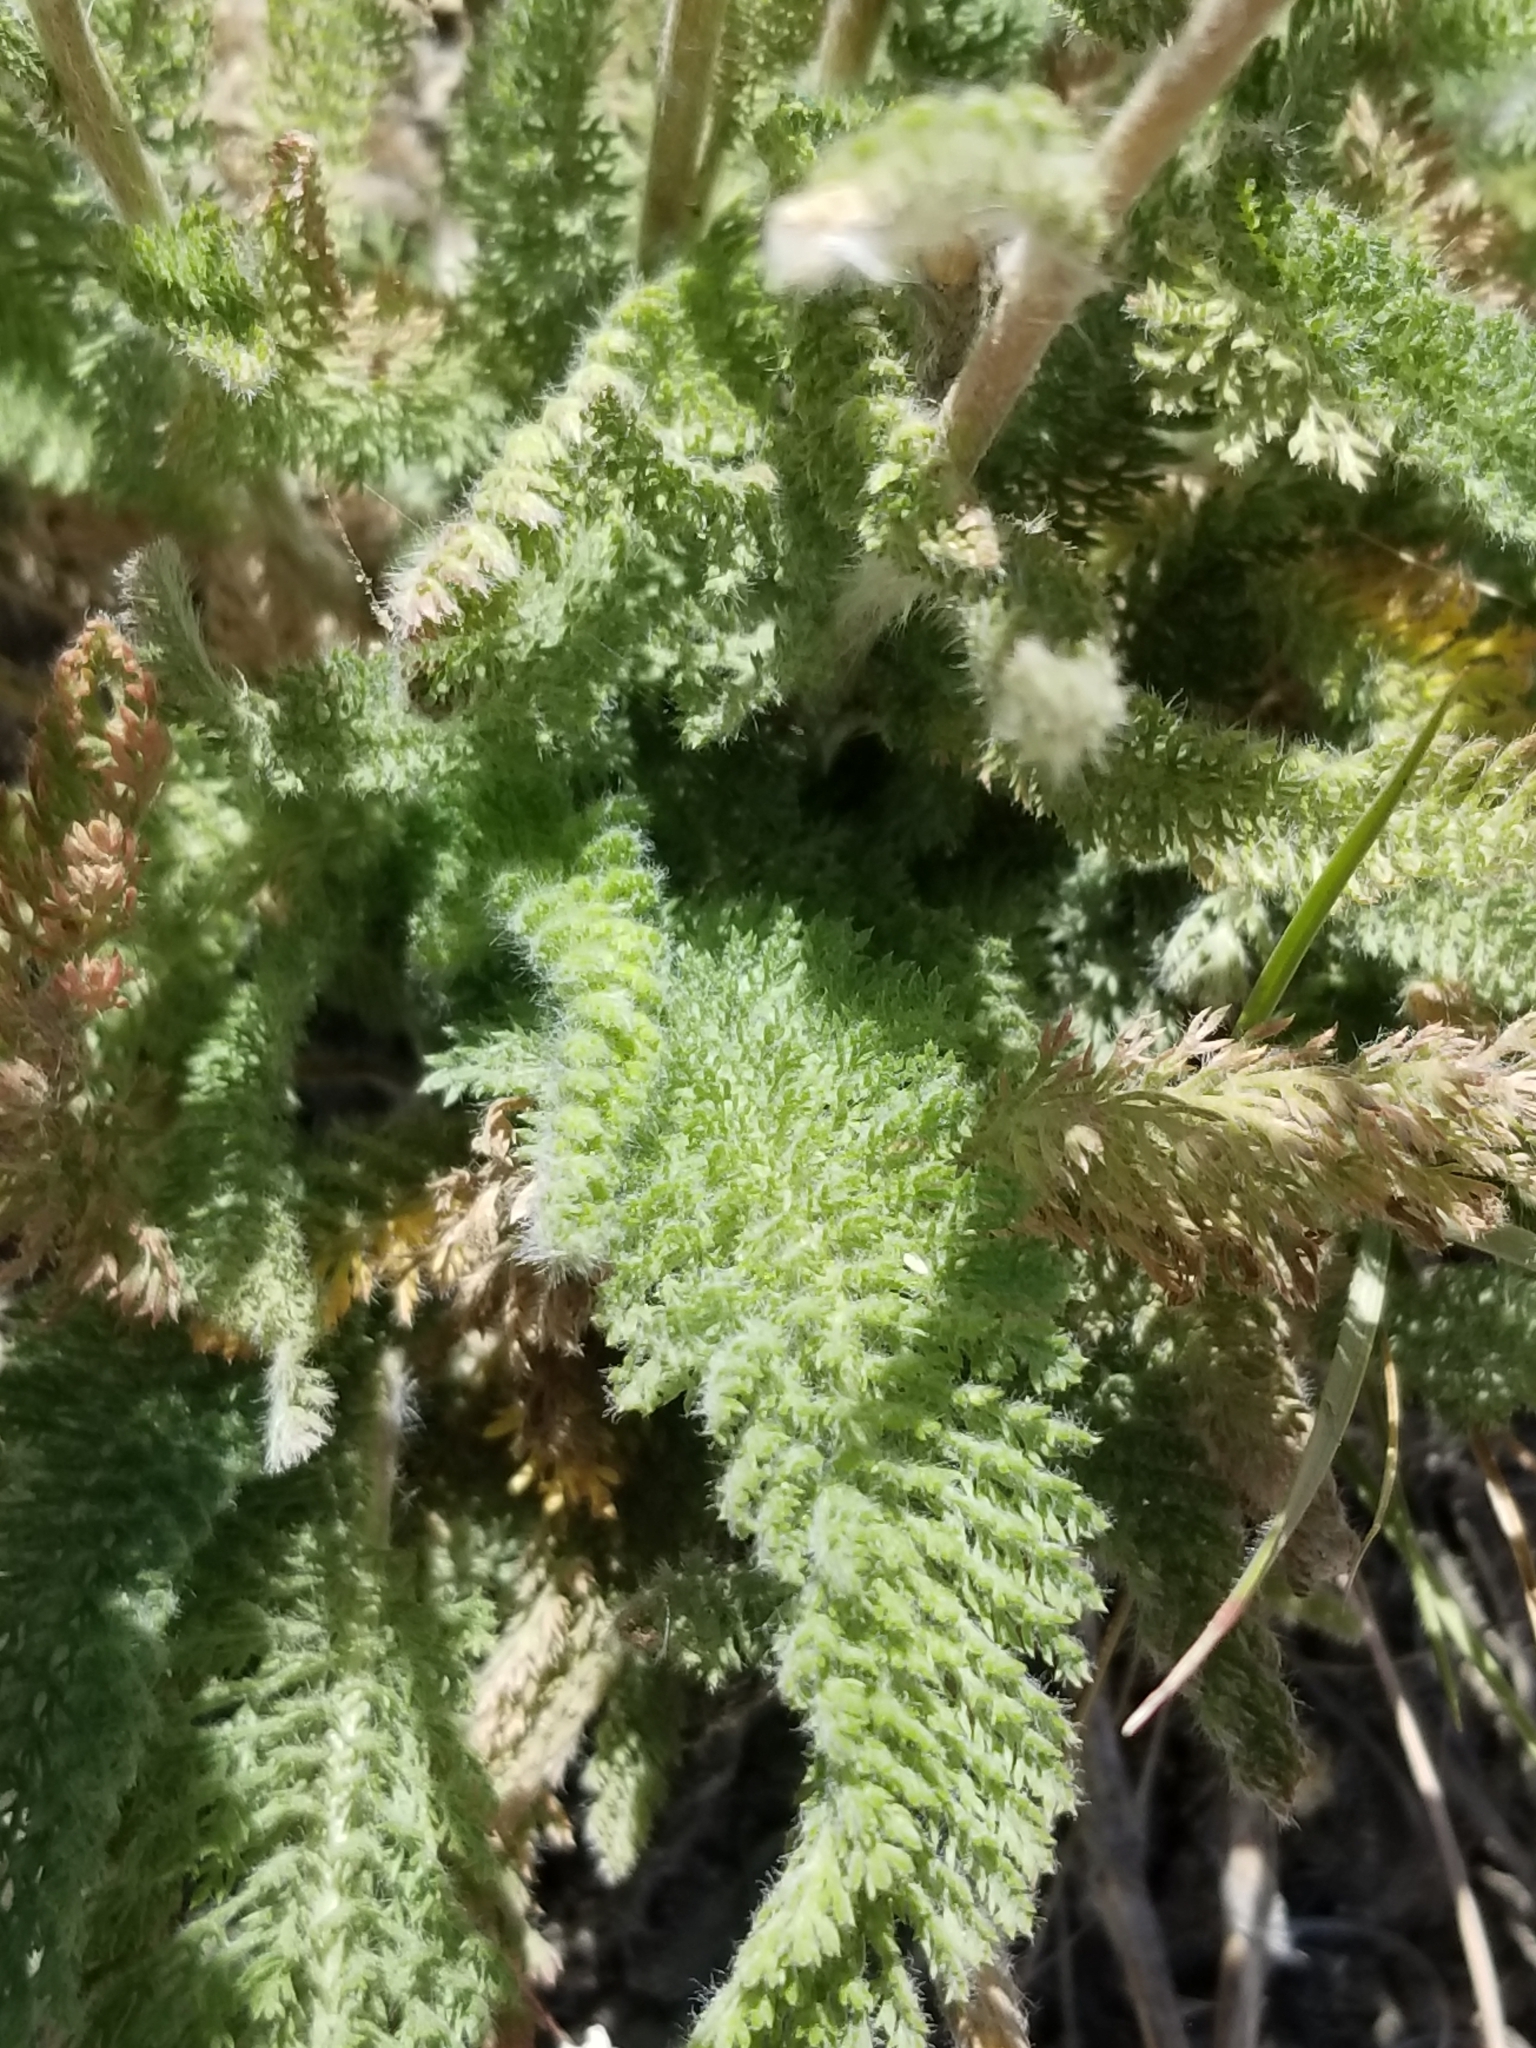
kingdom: Plantae
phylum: Tracheophyta
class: Magnoliopsida
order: Asterales
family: Asteraceae
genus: Achillea
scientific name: Achillea millefolium
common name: Yarrow
